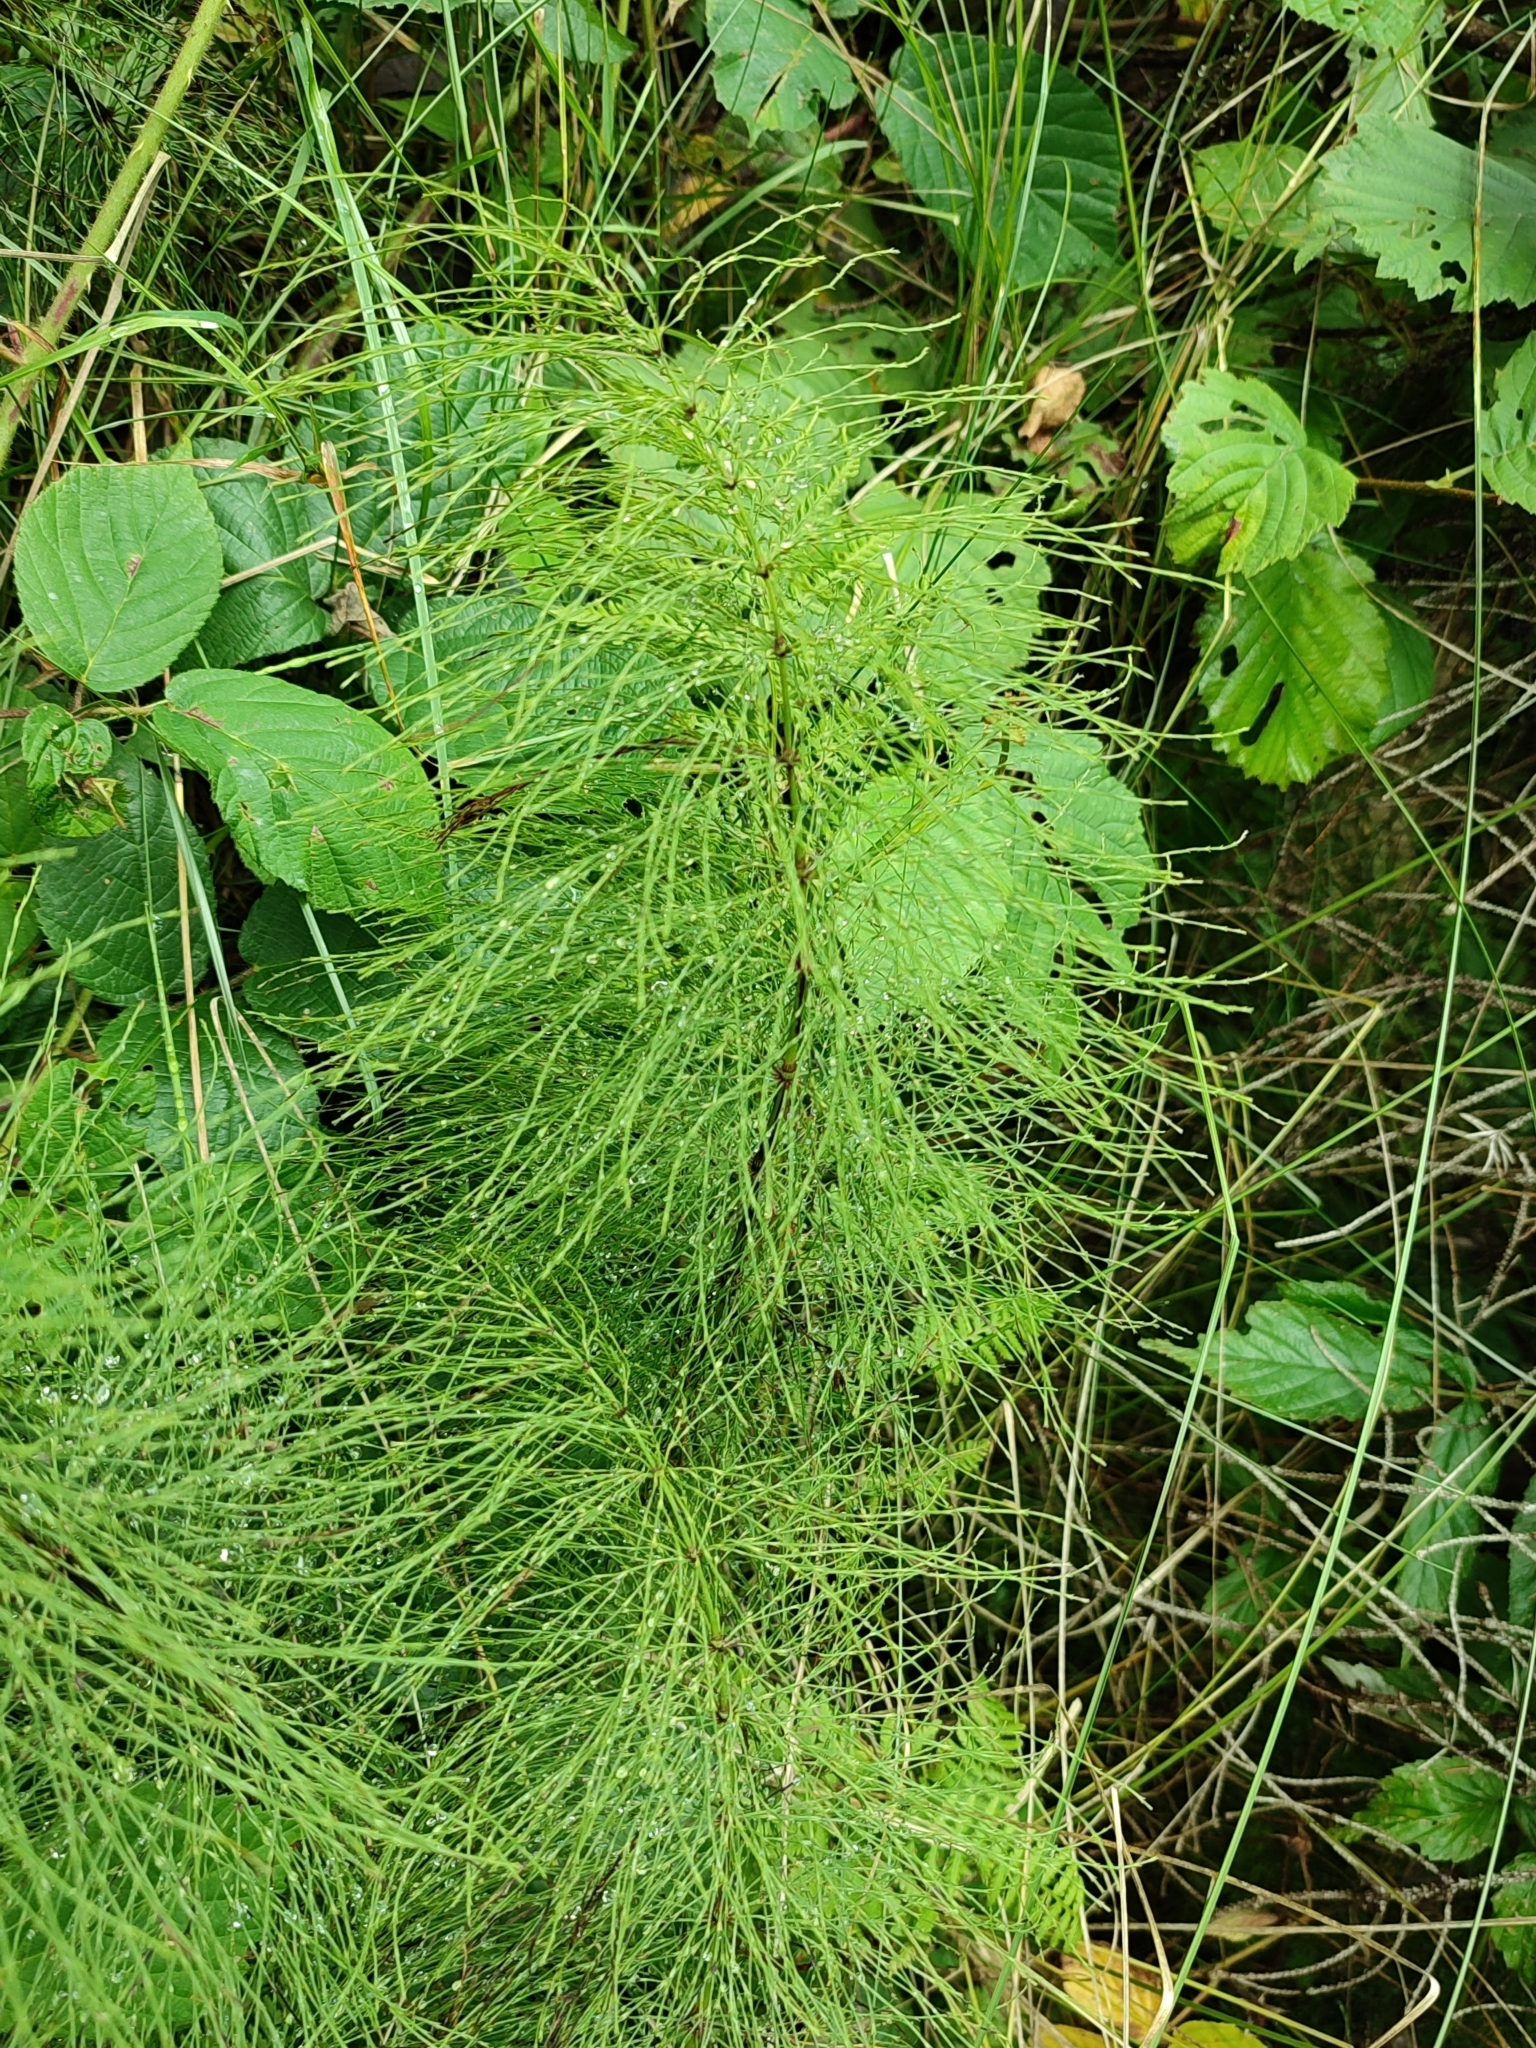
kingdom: Plantae
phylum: Tracheophyta
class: Polypodiopsida
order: Equisetales
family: Equisetaceae
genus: Equisetum
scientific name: Equisetum sylvaticum
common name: Wood horsetail
